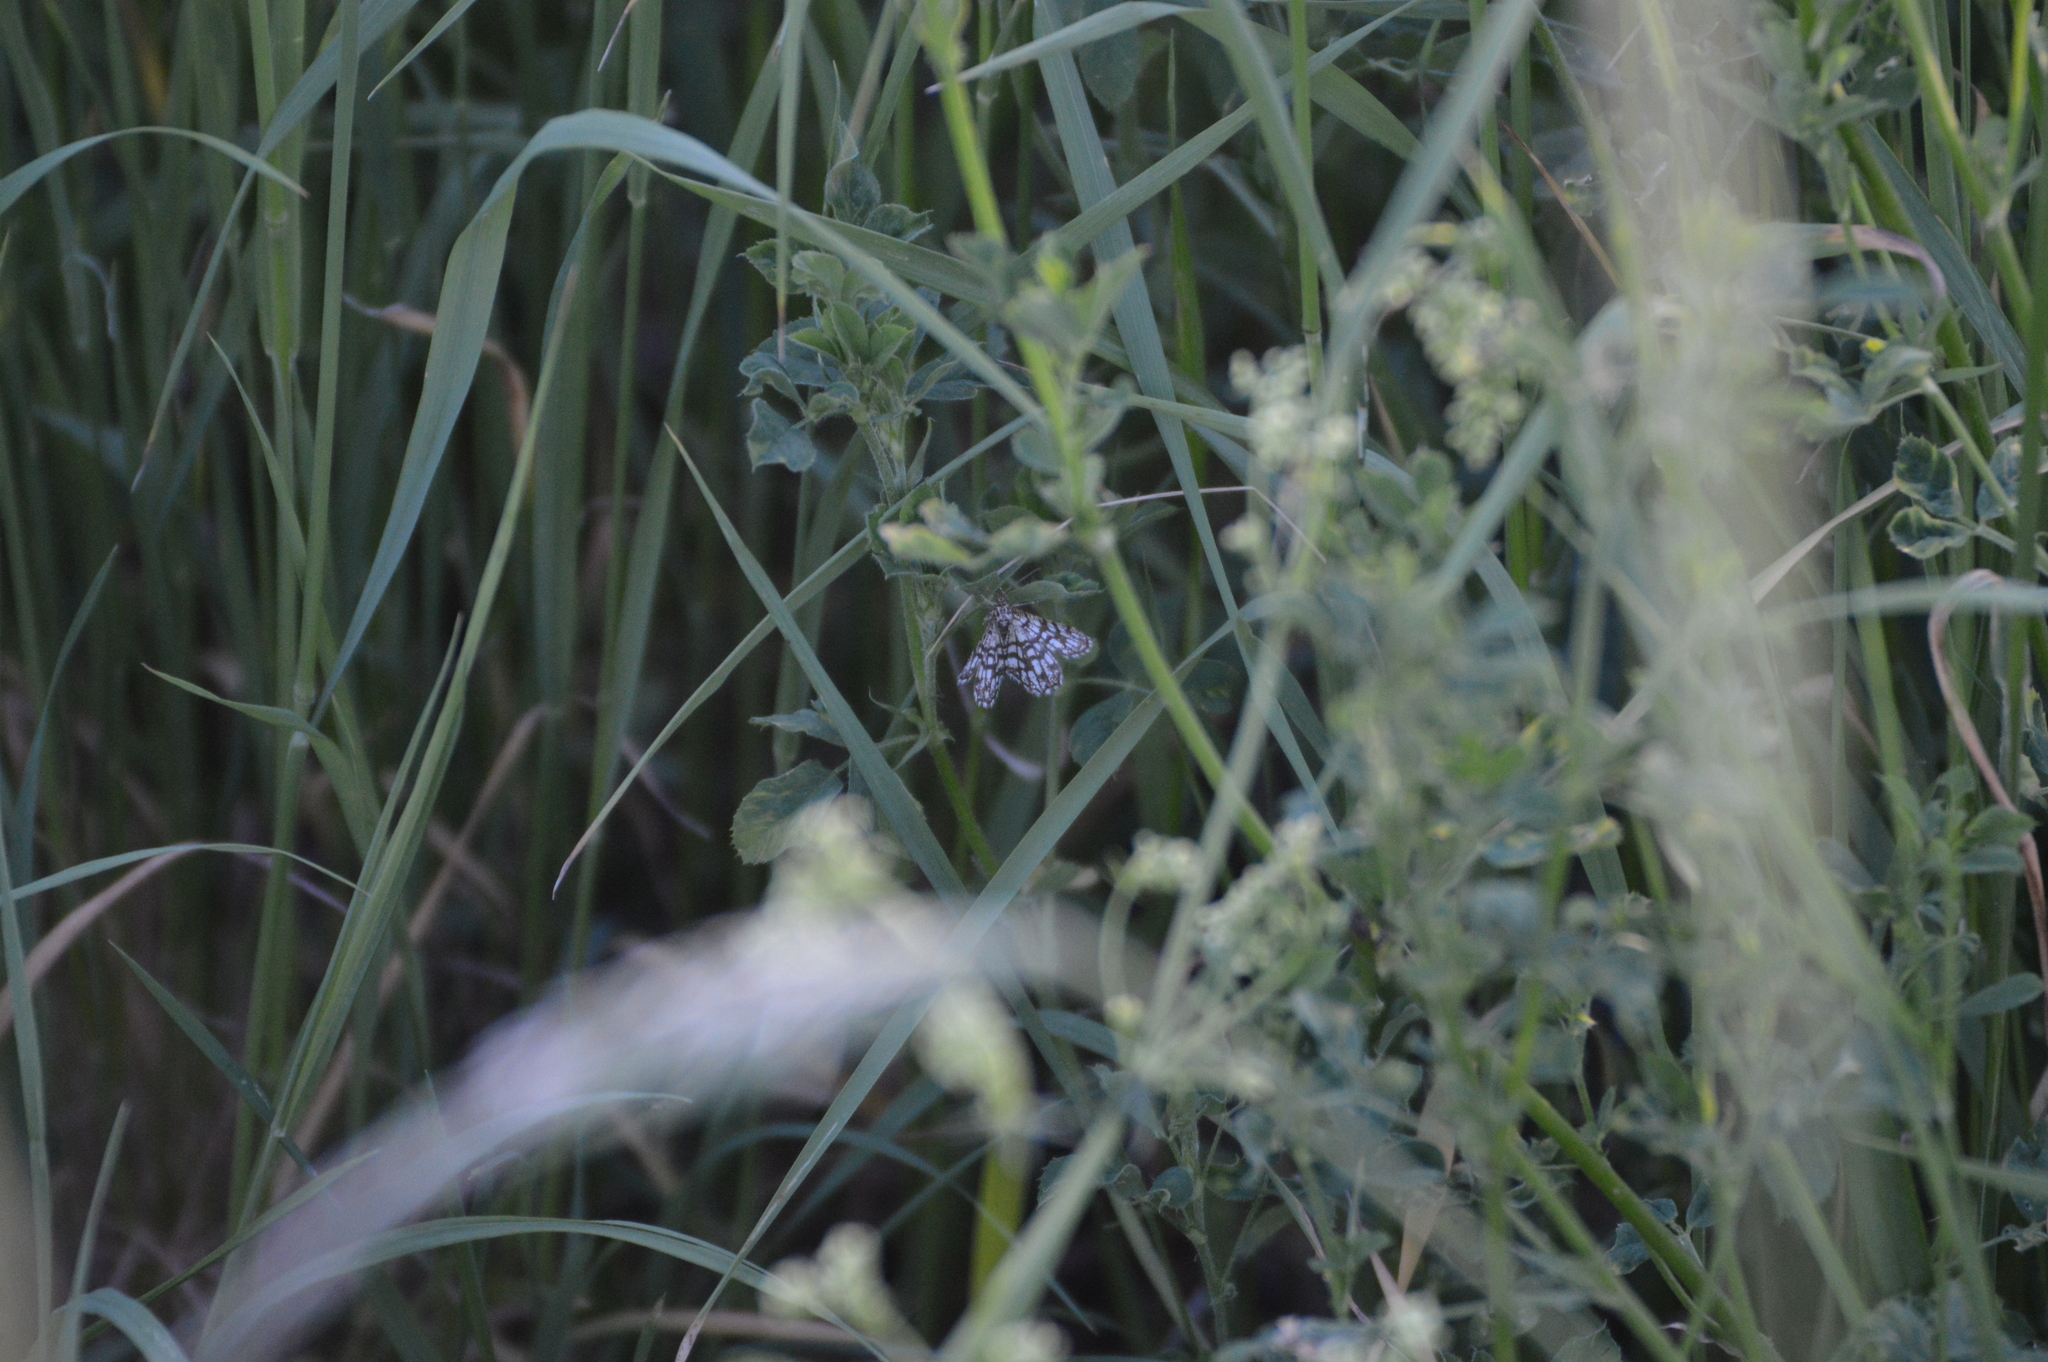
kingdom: Animalia
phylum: Arthropoda
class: Insecta
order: Lepidoptera
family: Geometridae
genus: Chiasmia
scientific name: Chiasmia clathrata
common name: Latticed heath
